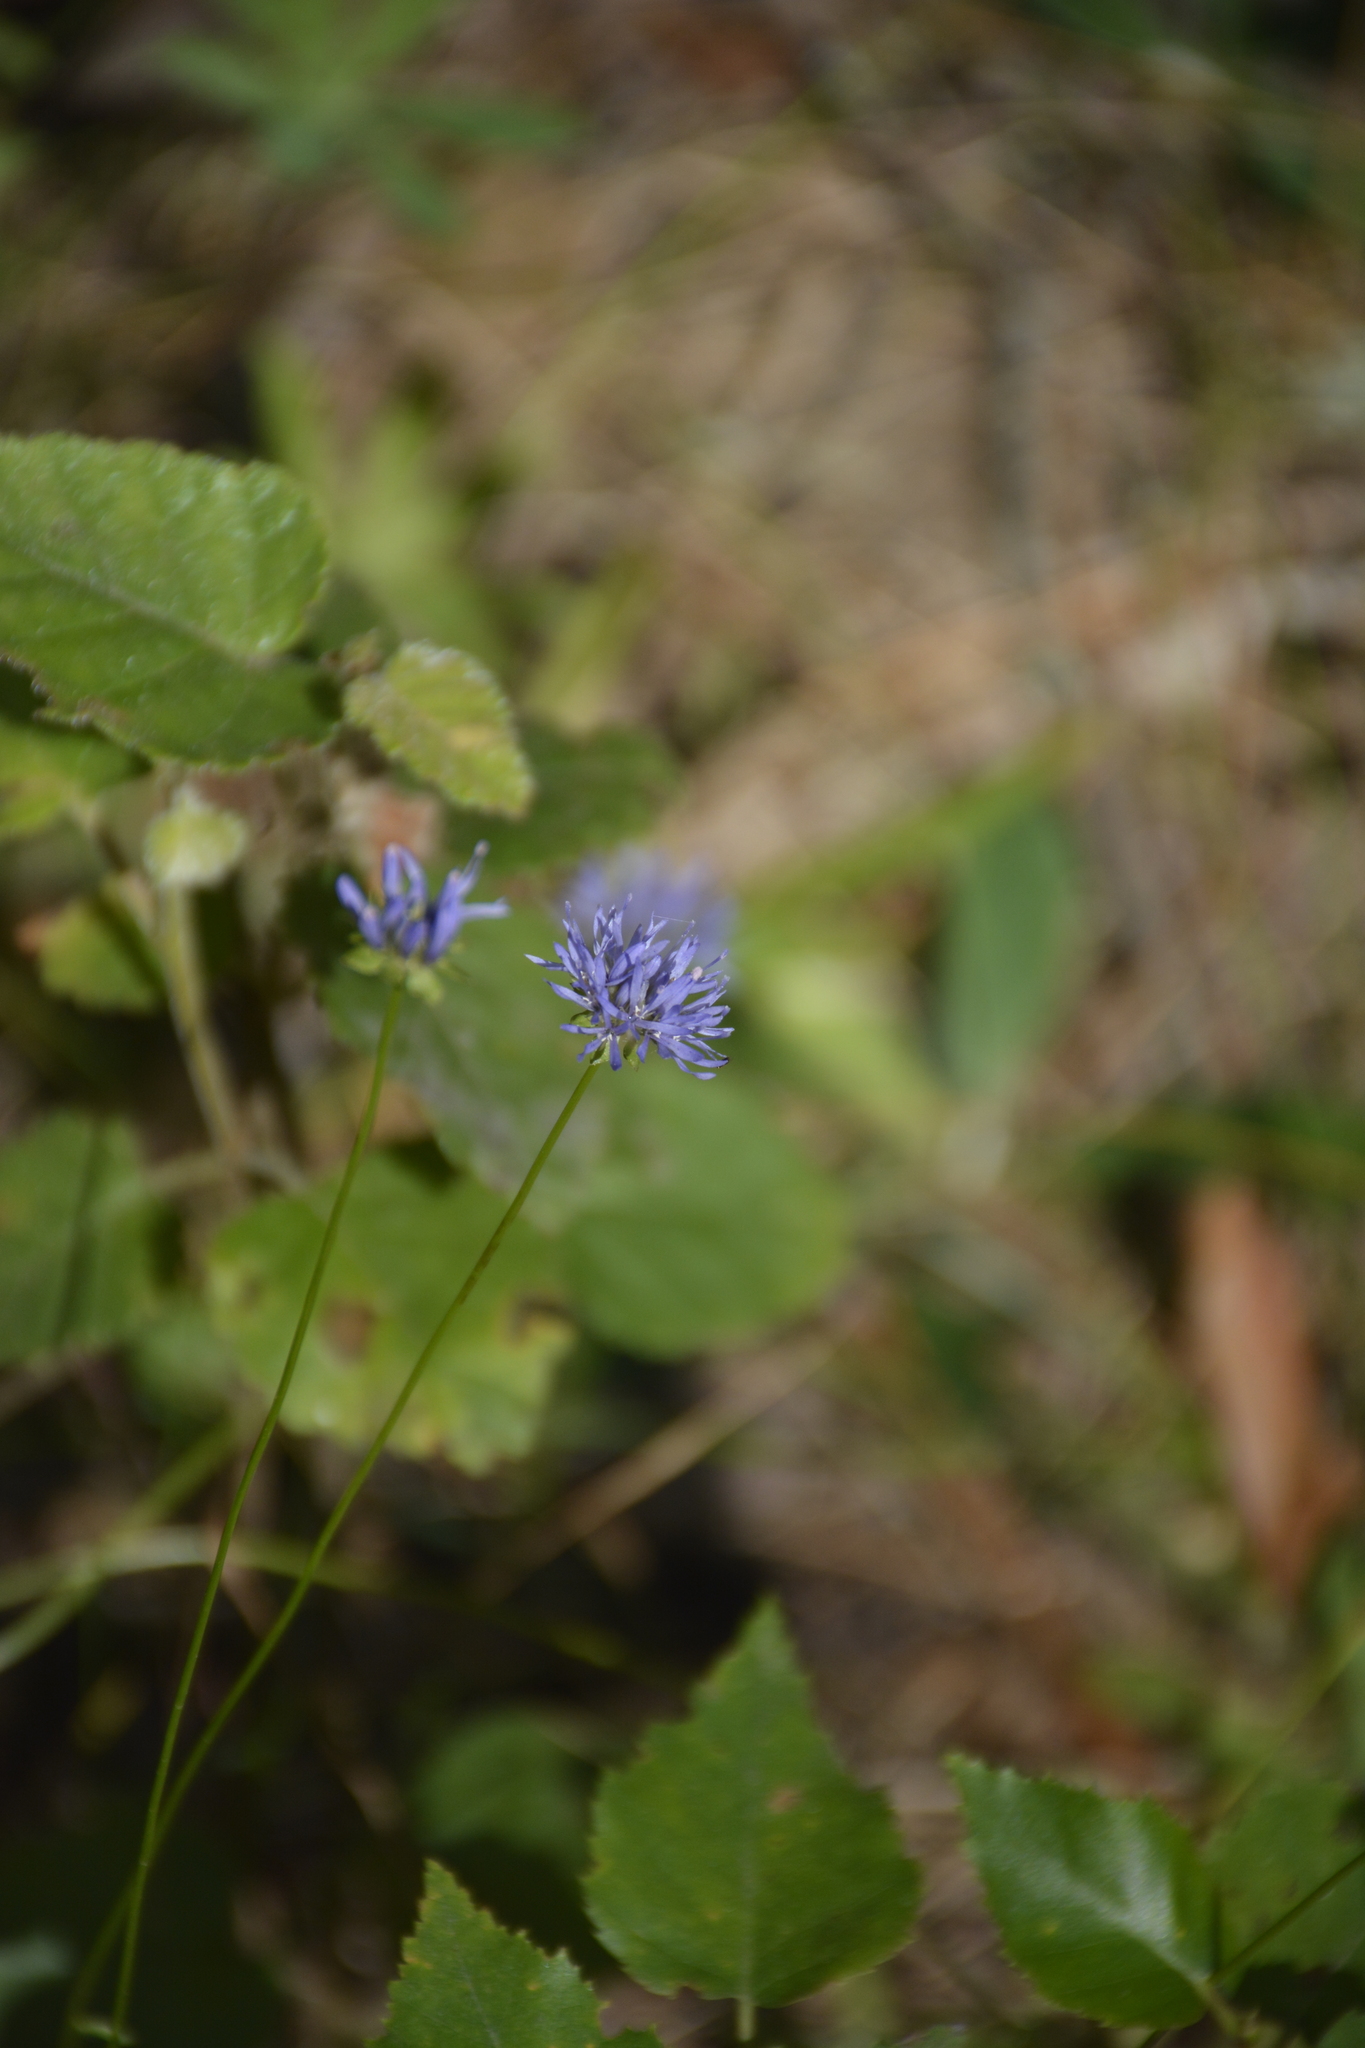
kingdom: Plantae
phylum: Tracheophyta
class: Magnoliopsida
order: Asterales
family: Campanulaceae
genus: Jasione
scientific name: Jasione montana
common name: Sheep's-bit
